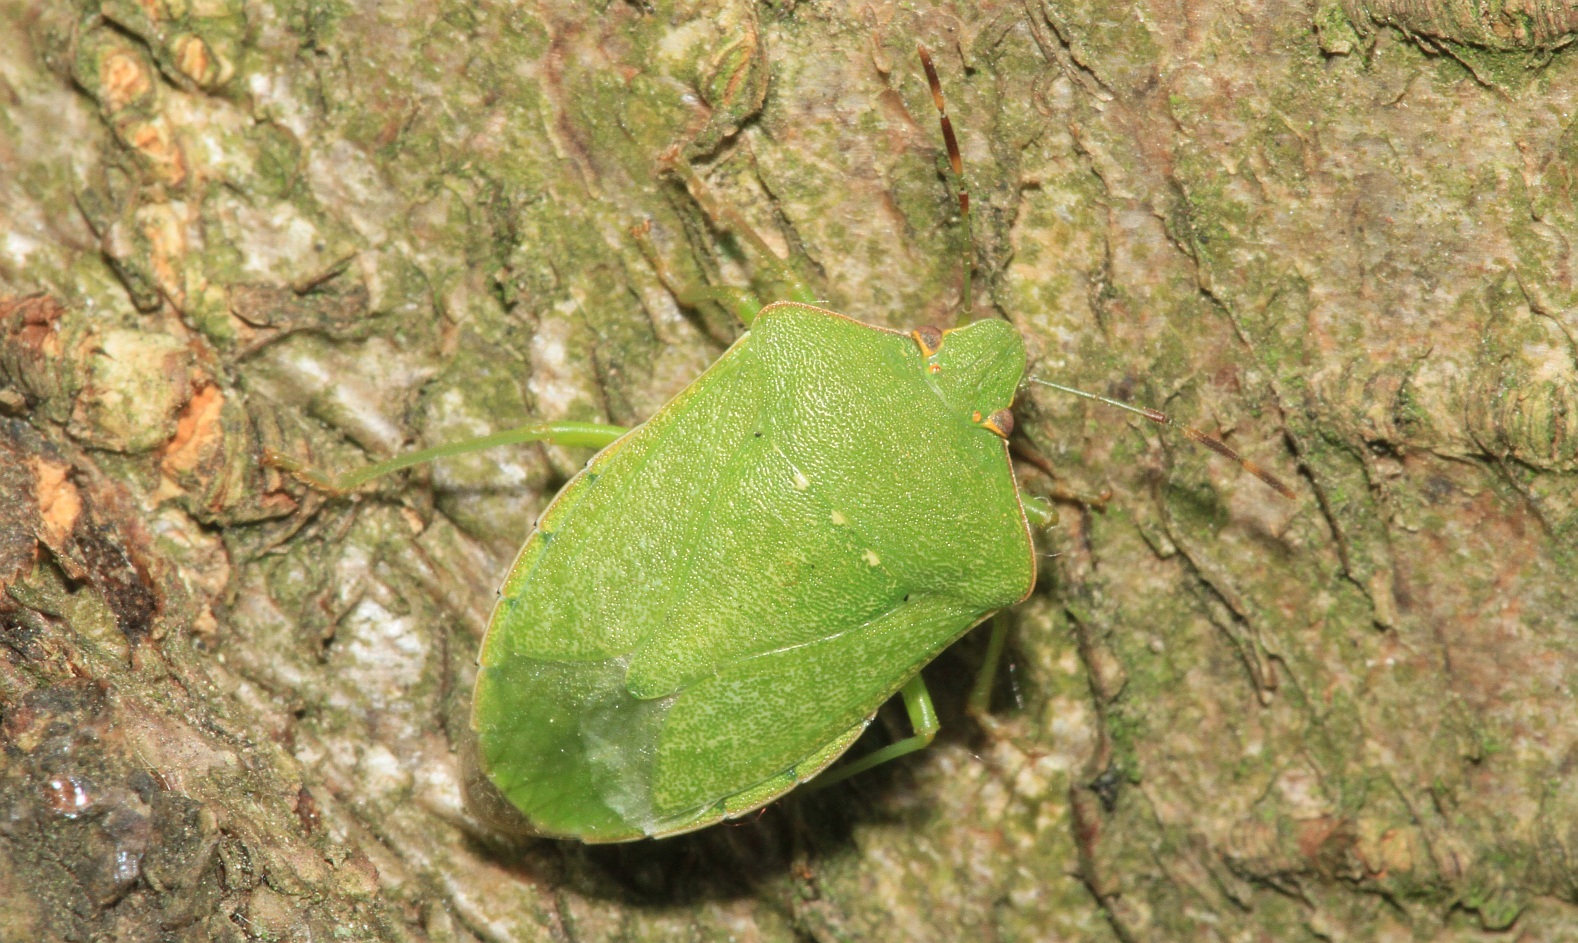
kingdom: Animalia
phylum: Arthropoda
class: Insecta
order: Hemiptera
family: Pentatomidae
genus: Nezara
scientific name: Nezara viridula
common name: Southern green stink bug
